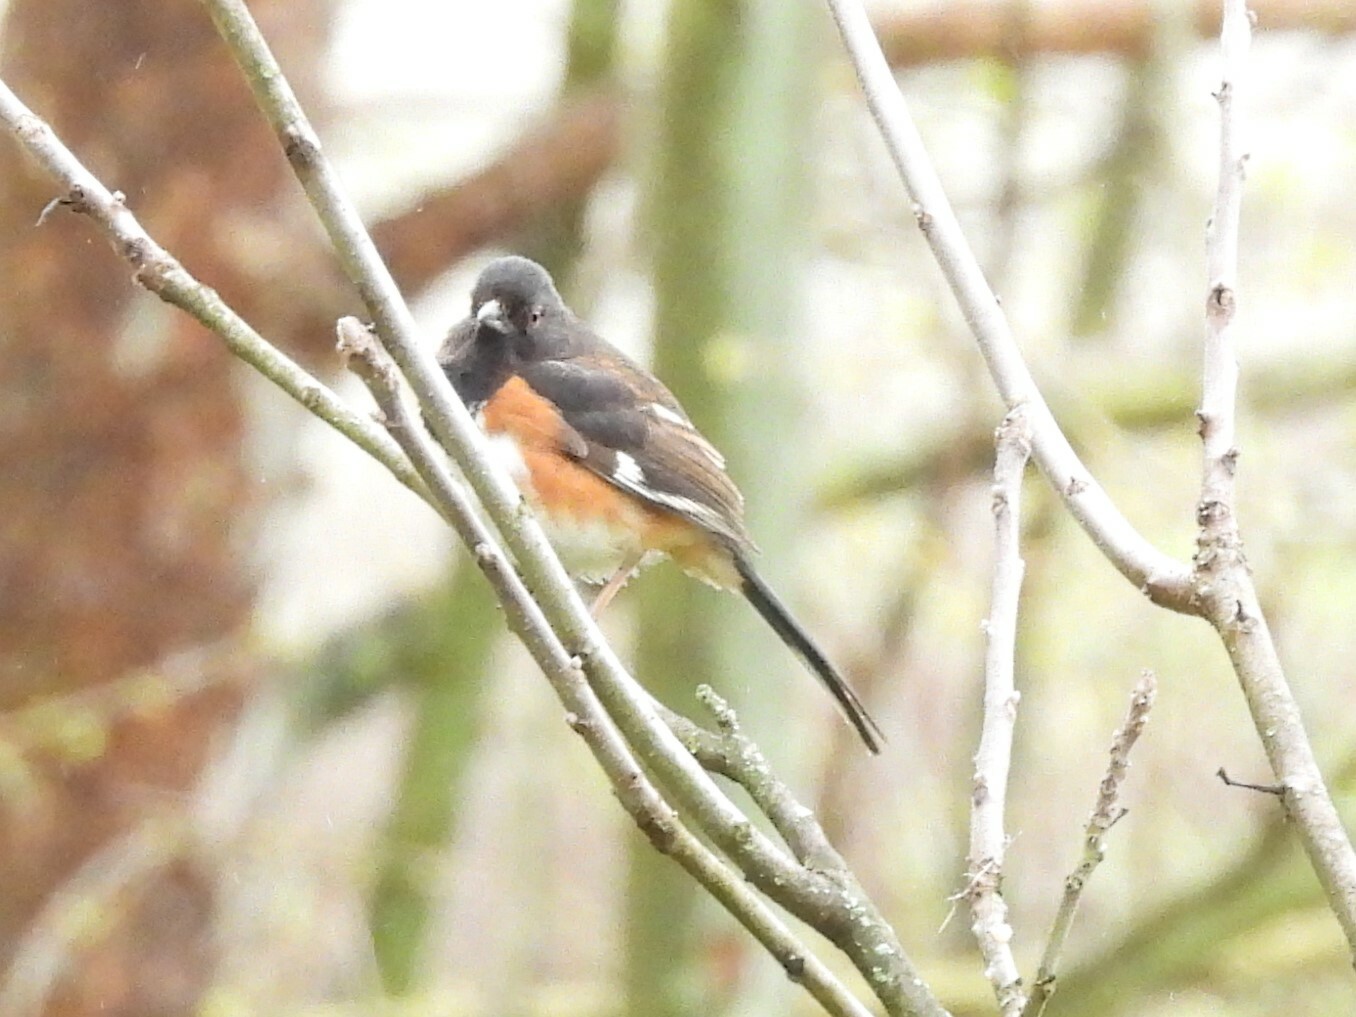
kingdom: Animalia
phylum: Chordata
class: Aves
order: Passeriformes
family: Passerellidae
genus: Pipilo
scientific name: Pipilo erythrophthalmus
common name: Eastern towhee
